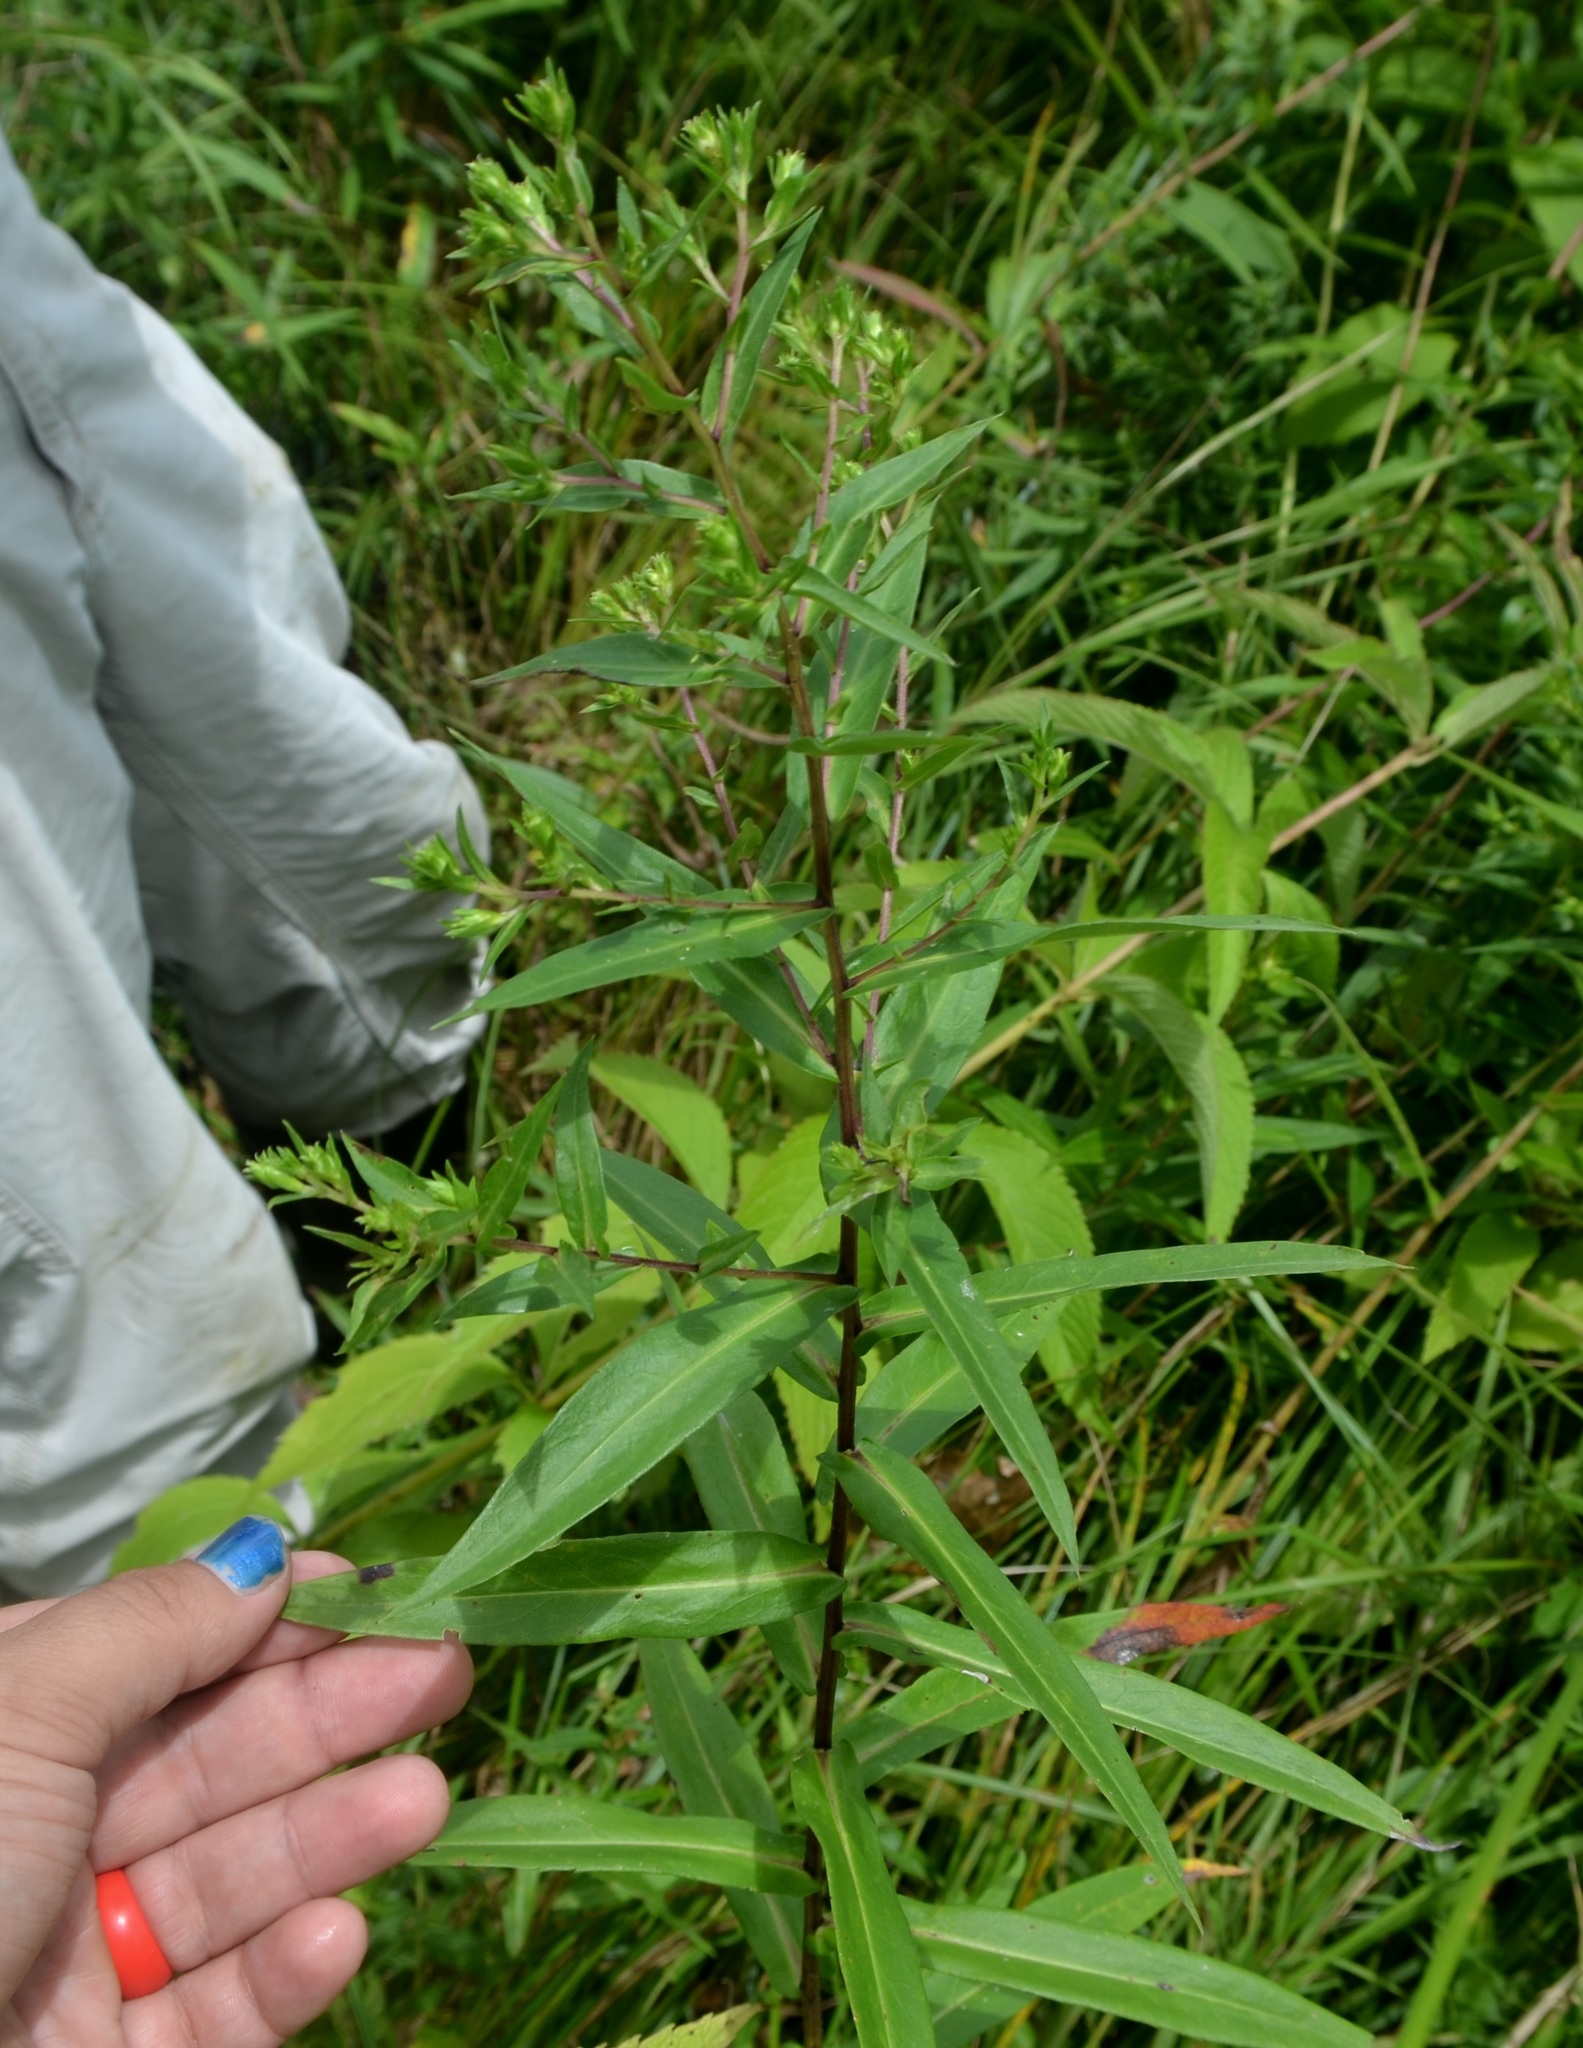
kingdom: Plantae
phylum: Tracheophyta
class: Magnoliopsida
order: Asterales
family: Asteraceae
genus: Symphyotrichum
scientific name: Symphyotrichum puniceum
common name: Bog aster
